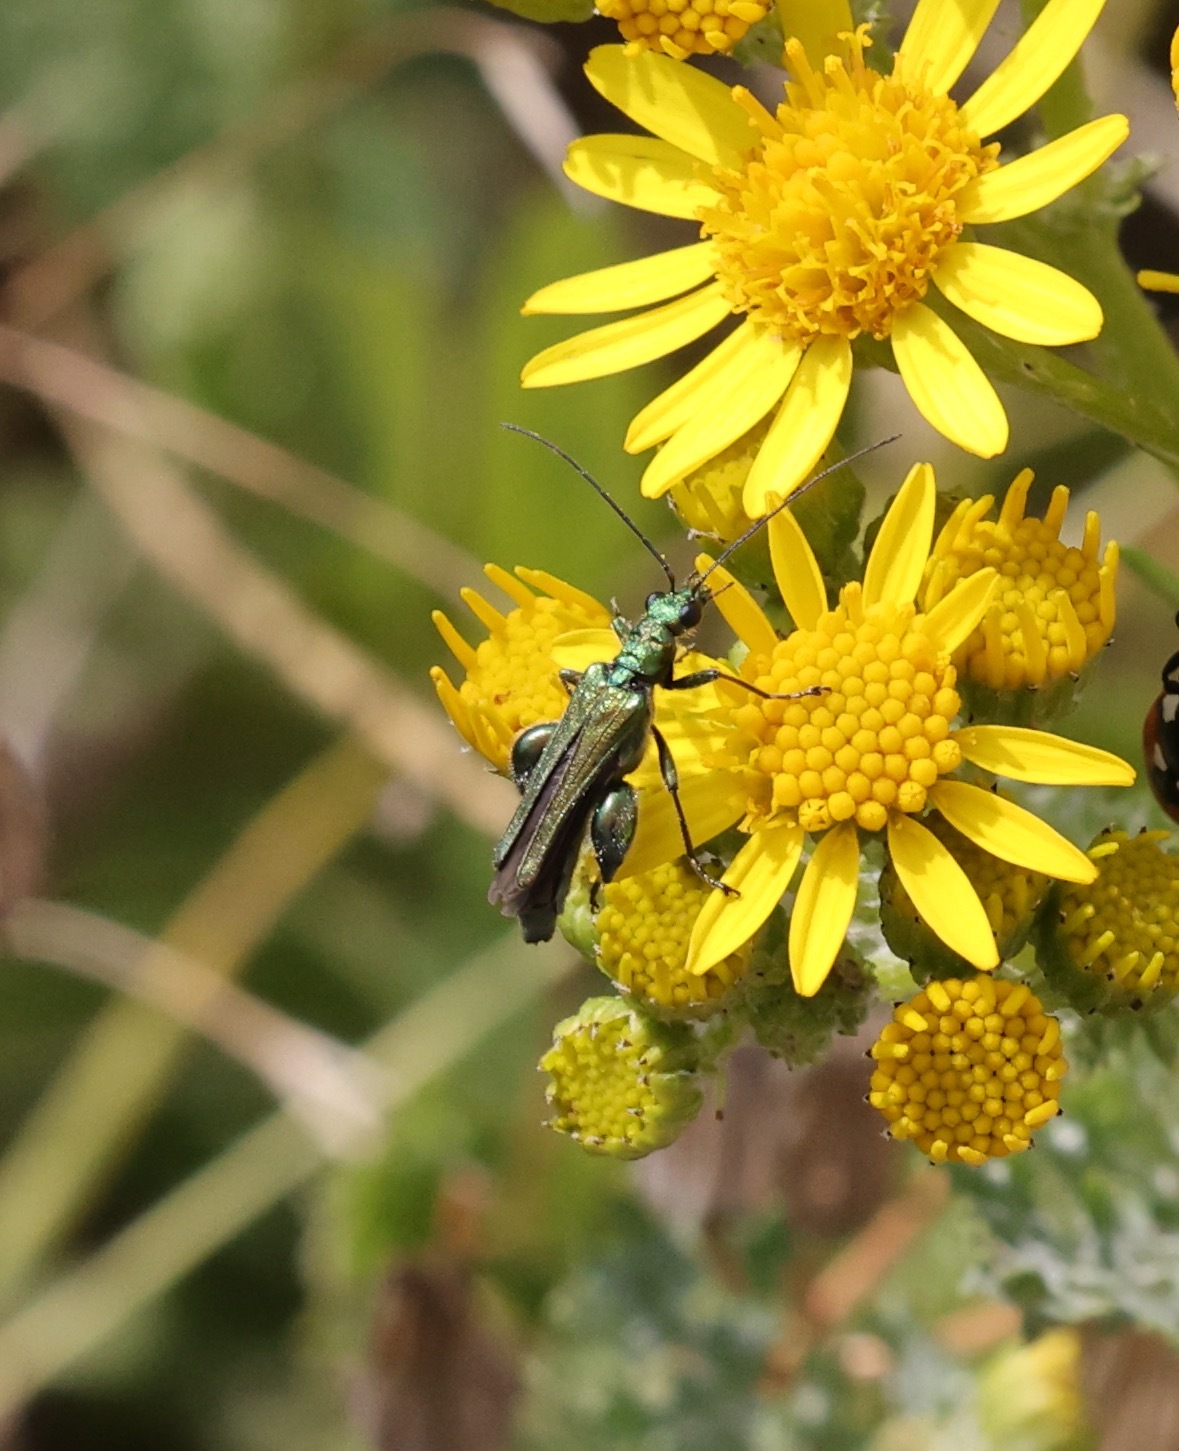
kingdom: Animalia
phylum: Arthropoda
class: Insecta
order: Coleoptera
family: Oedemeridae
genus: Oedemera
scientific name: Oedemera nobilis
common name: Swollen-thighed beetle
